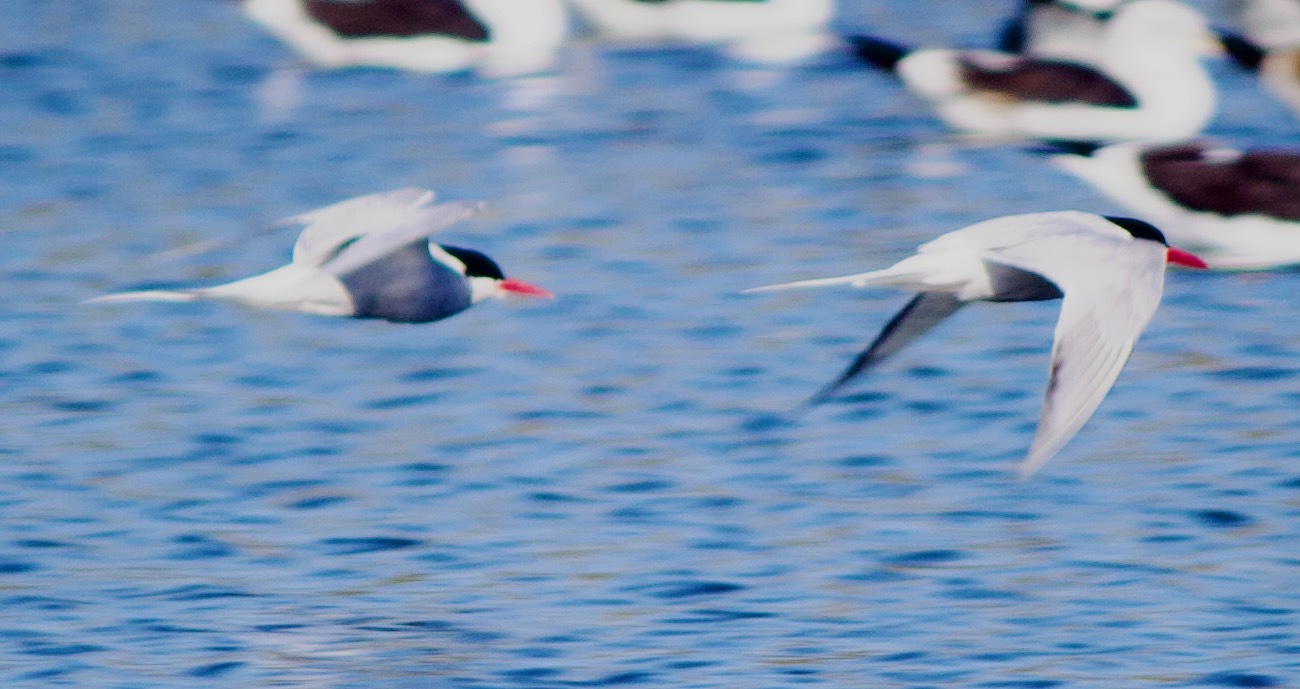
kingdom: Animalia
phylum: Chordata
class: Aves
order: Charadriiformes
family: Laridae
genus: Sterna
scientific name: Sterna hirundinacea
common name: South american tern
